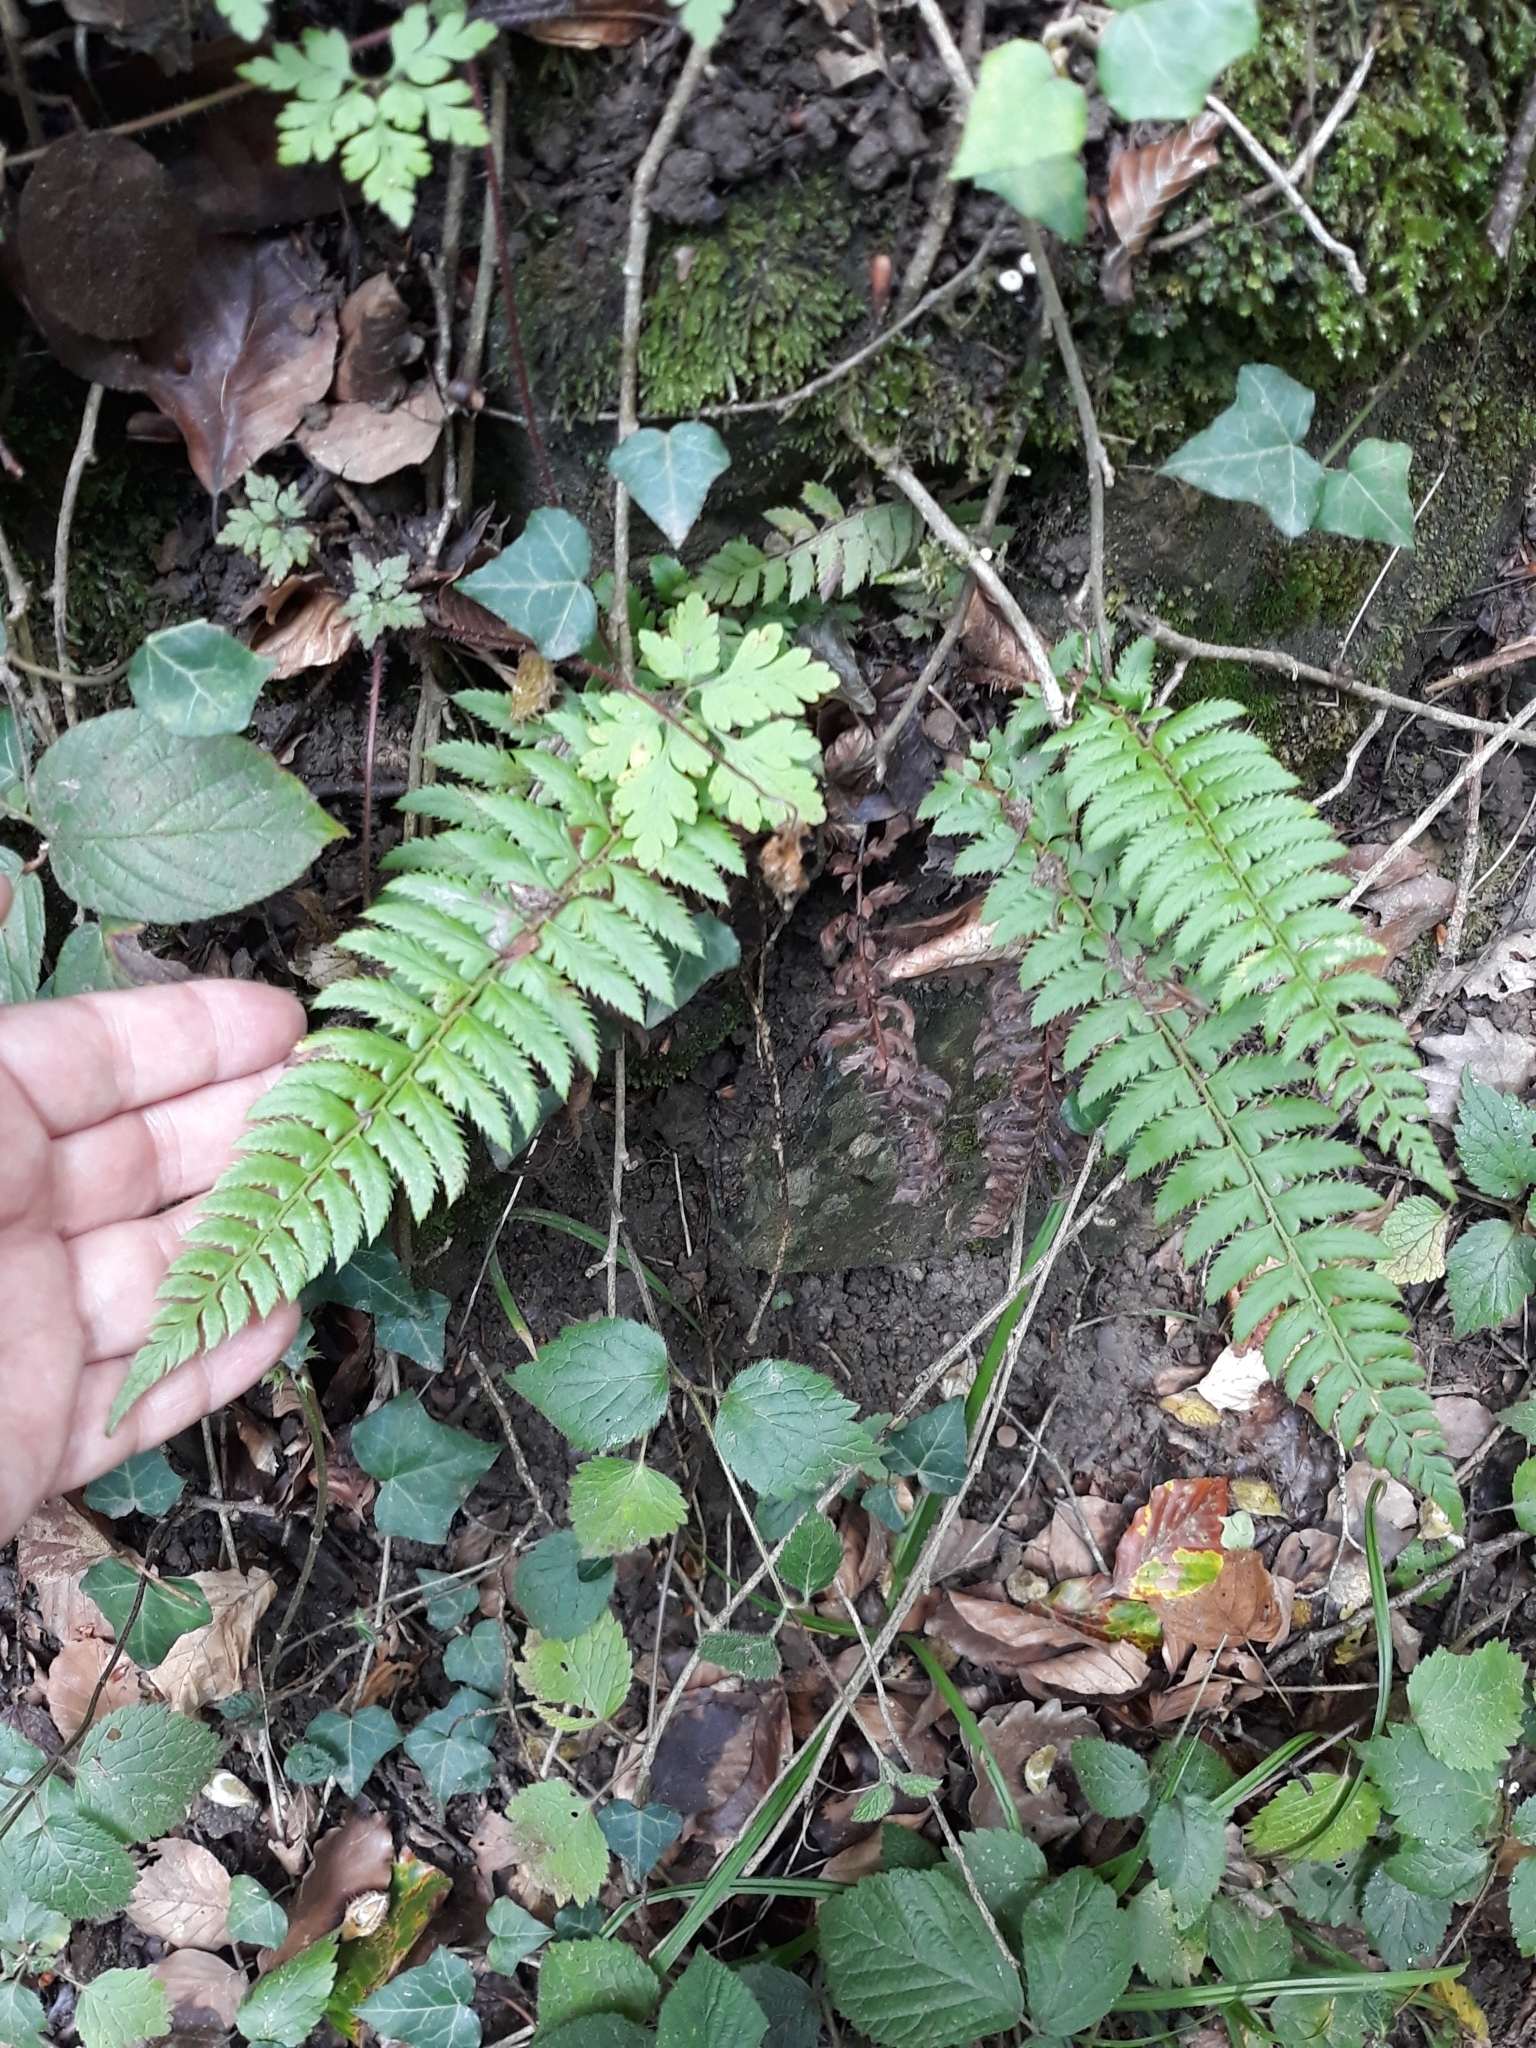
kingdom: Plantae
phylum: Tracheophyta
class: Polypodiopsida
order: Polypodiales
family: Dryopteridaceae
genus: Polystichum
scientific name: Polystichum aculeatum
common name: Hard shield-fern
